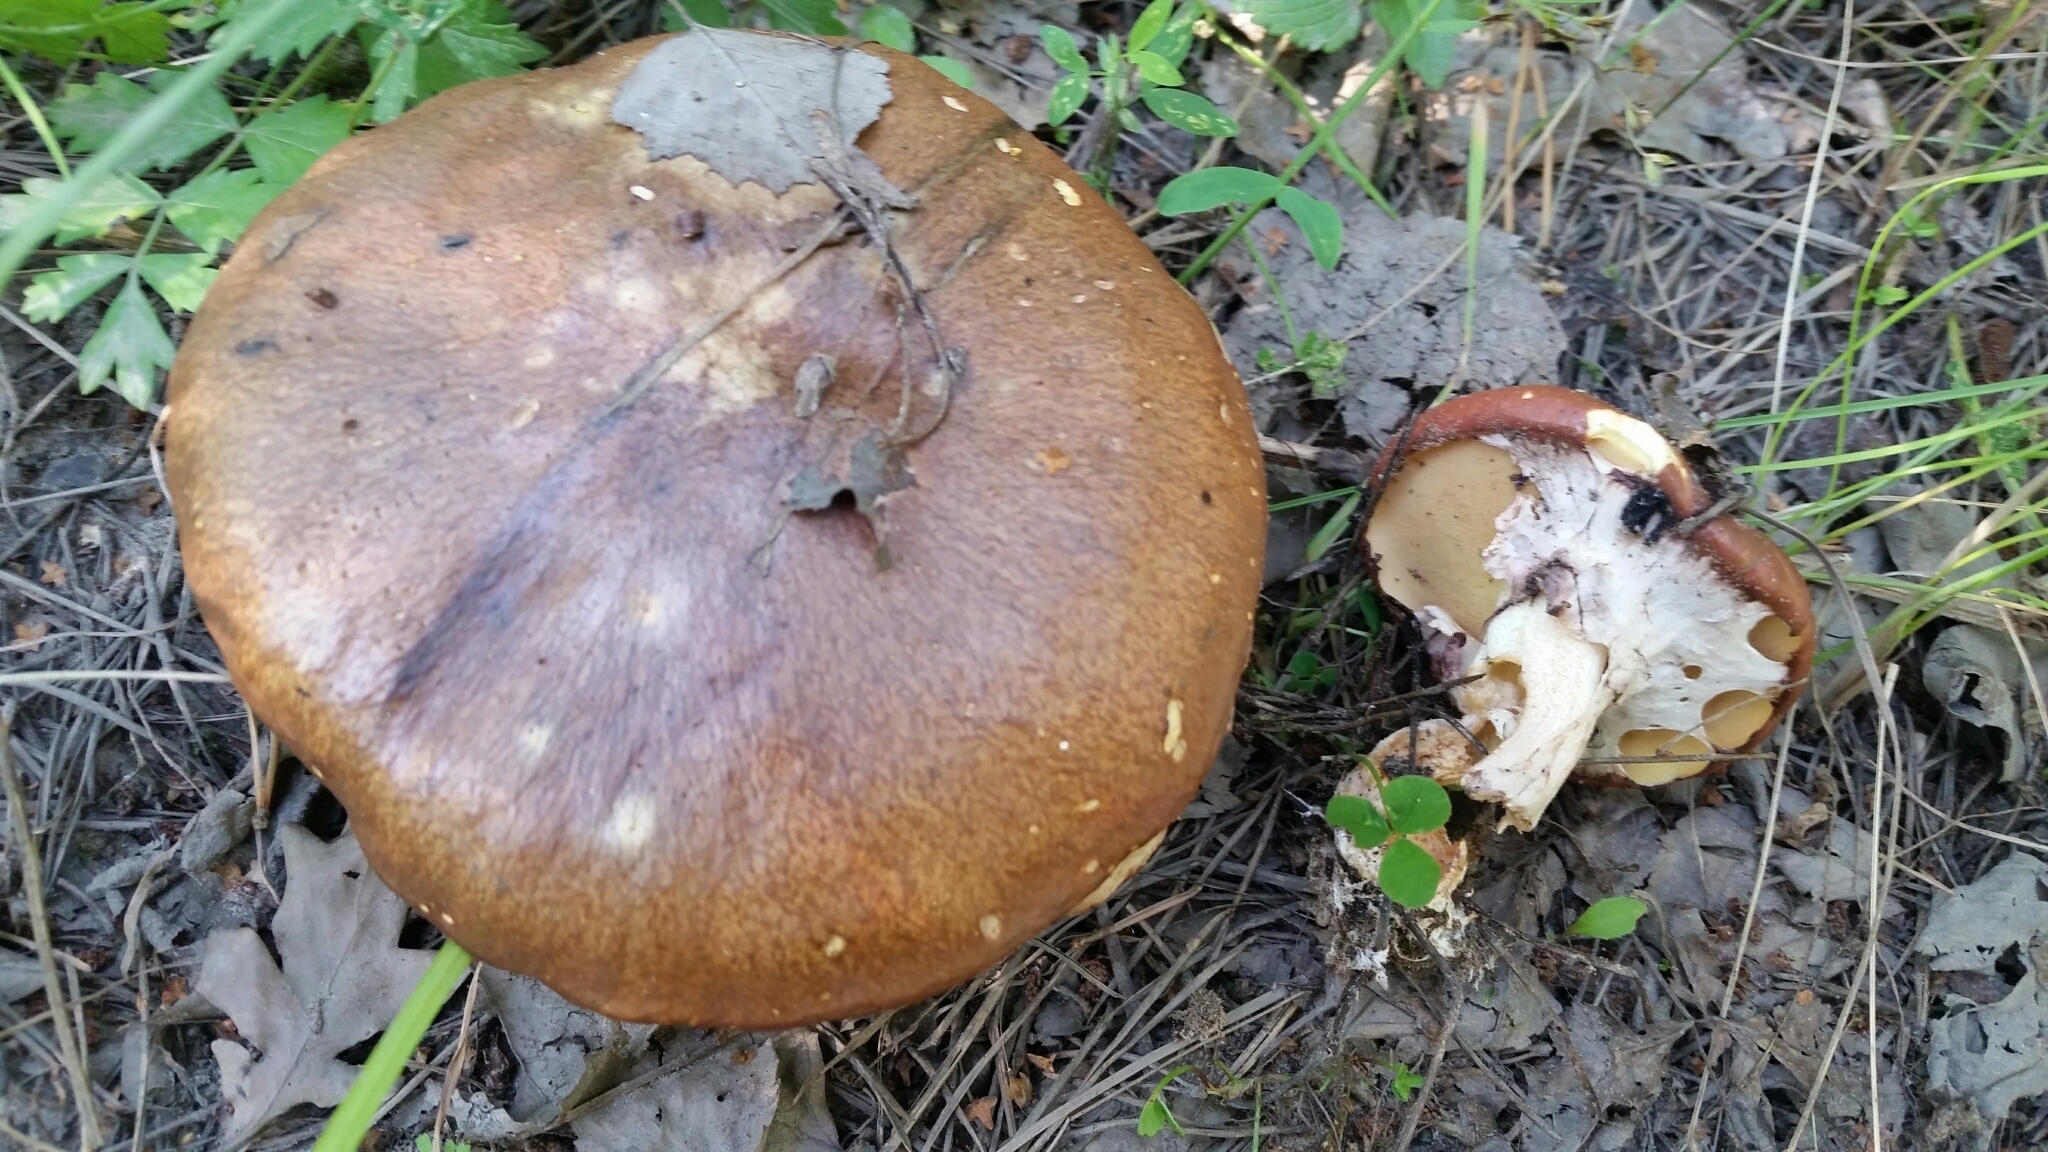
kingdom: Fungi
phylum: Basidiomycota
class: Agaricomycetes
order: Boletales
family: Suillaceae
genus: Suillus
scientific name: Suillus luteus
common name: Slippery jack
